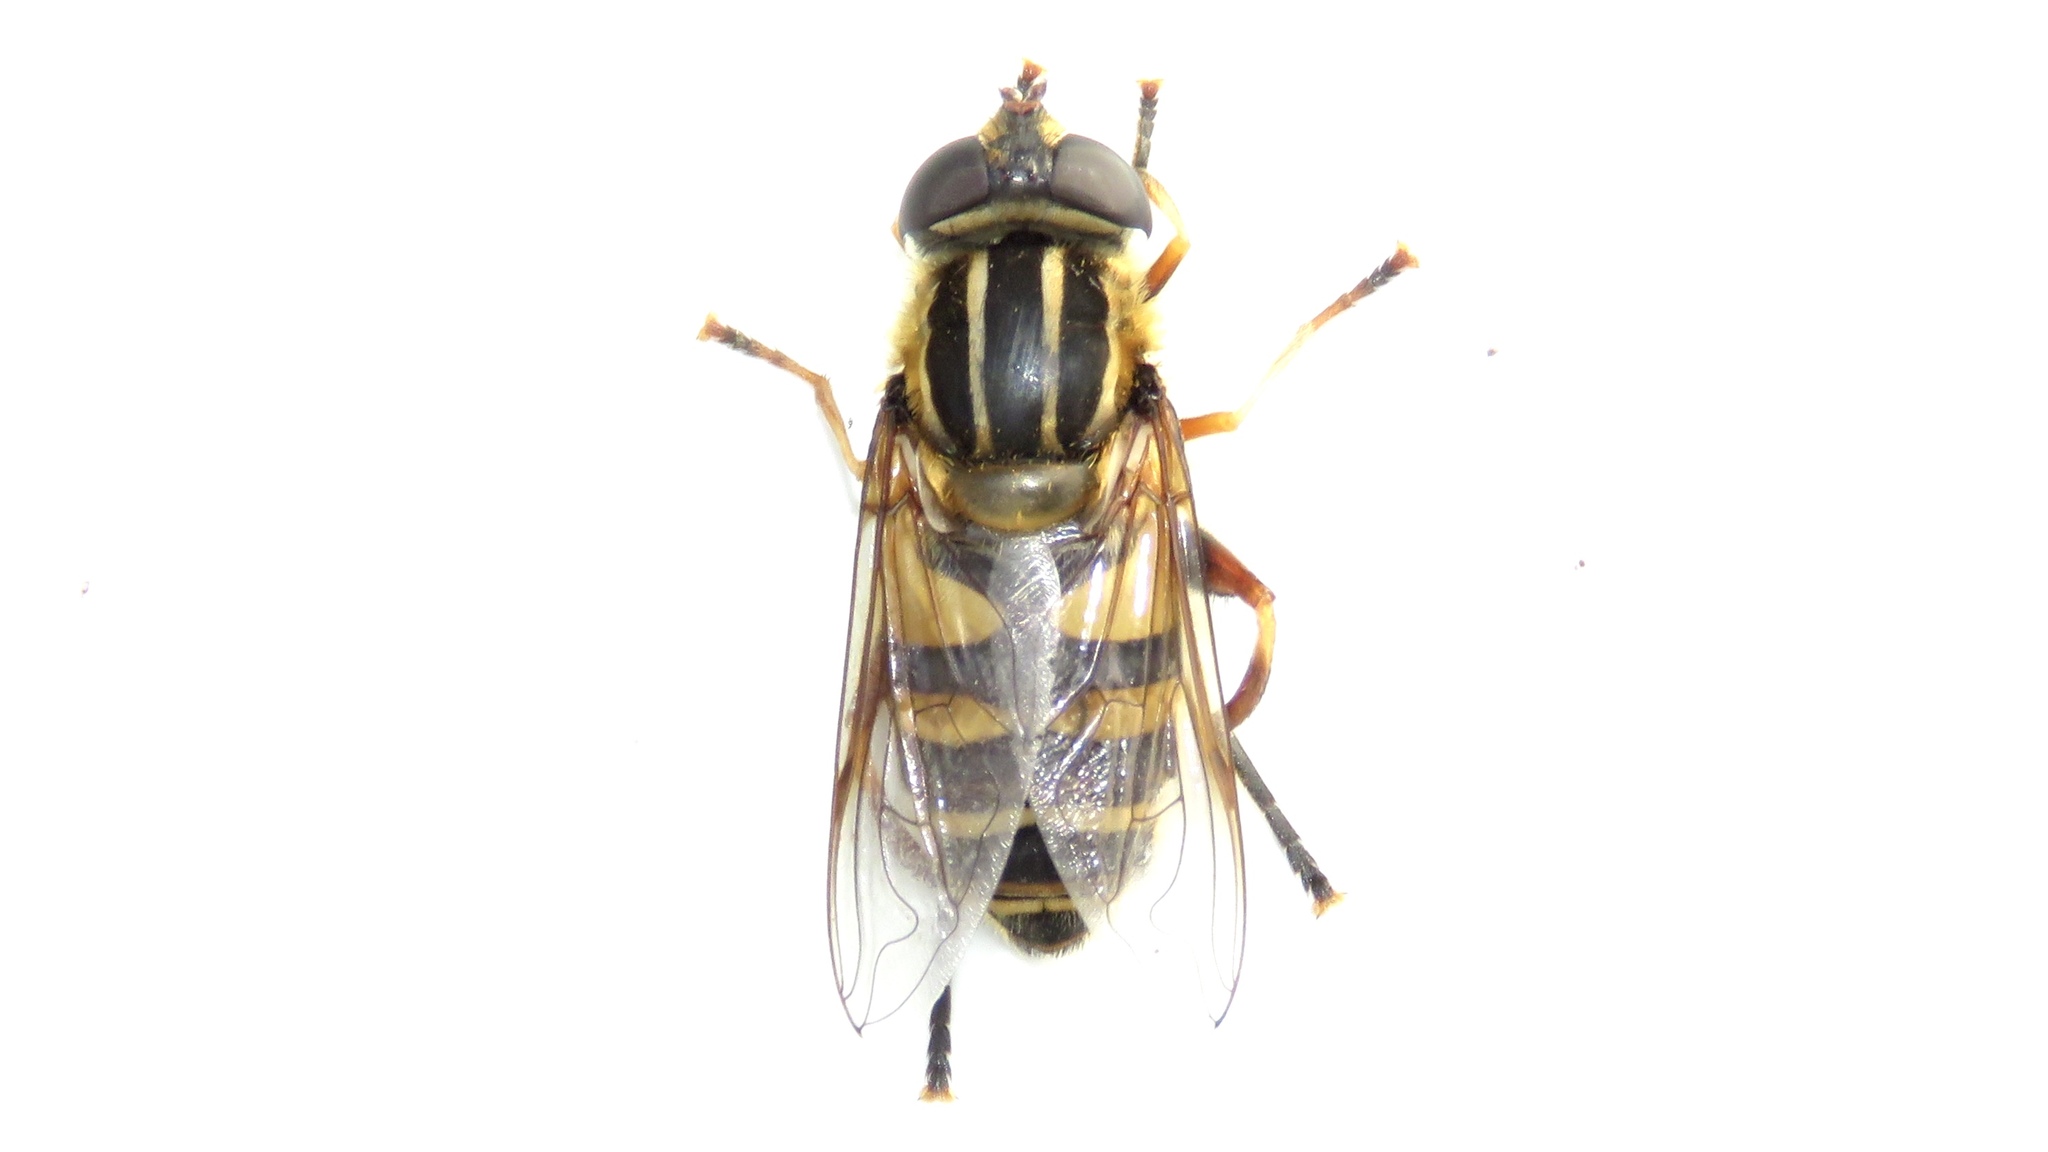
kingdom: Animalia
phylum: Arthropoda
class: Insecta
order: Diptera
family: Syrphidae
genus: Helophilus
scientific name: Helophilus fasciatus
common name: Narrow-headed marsh fly
